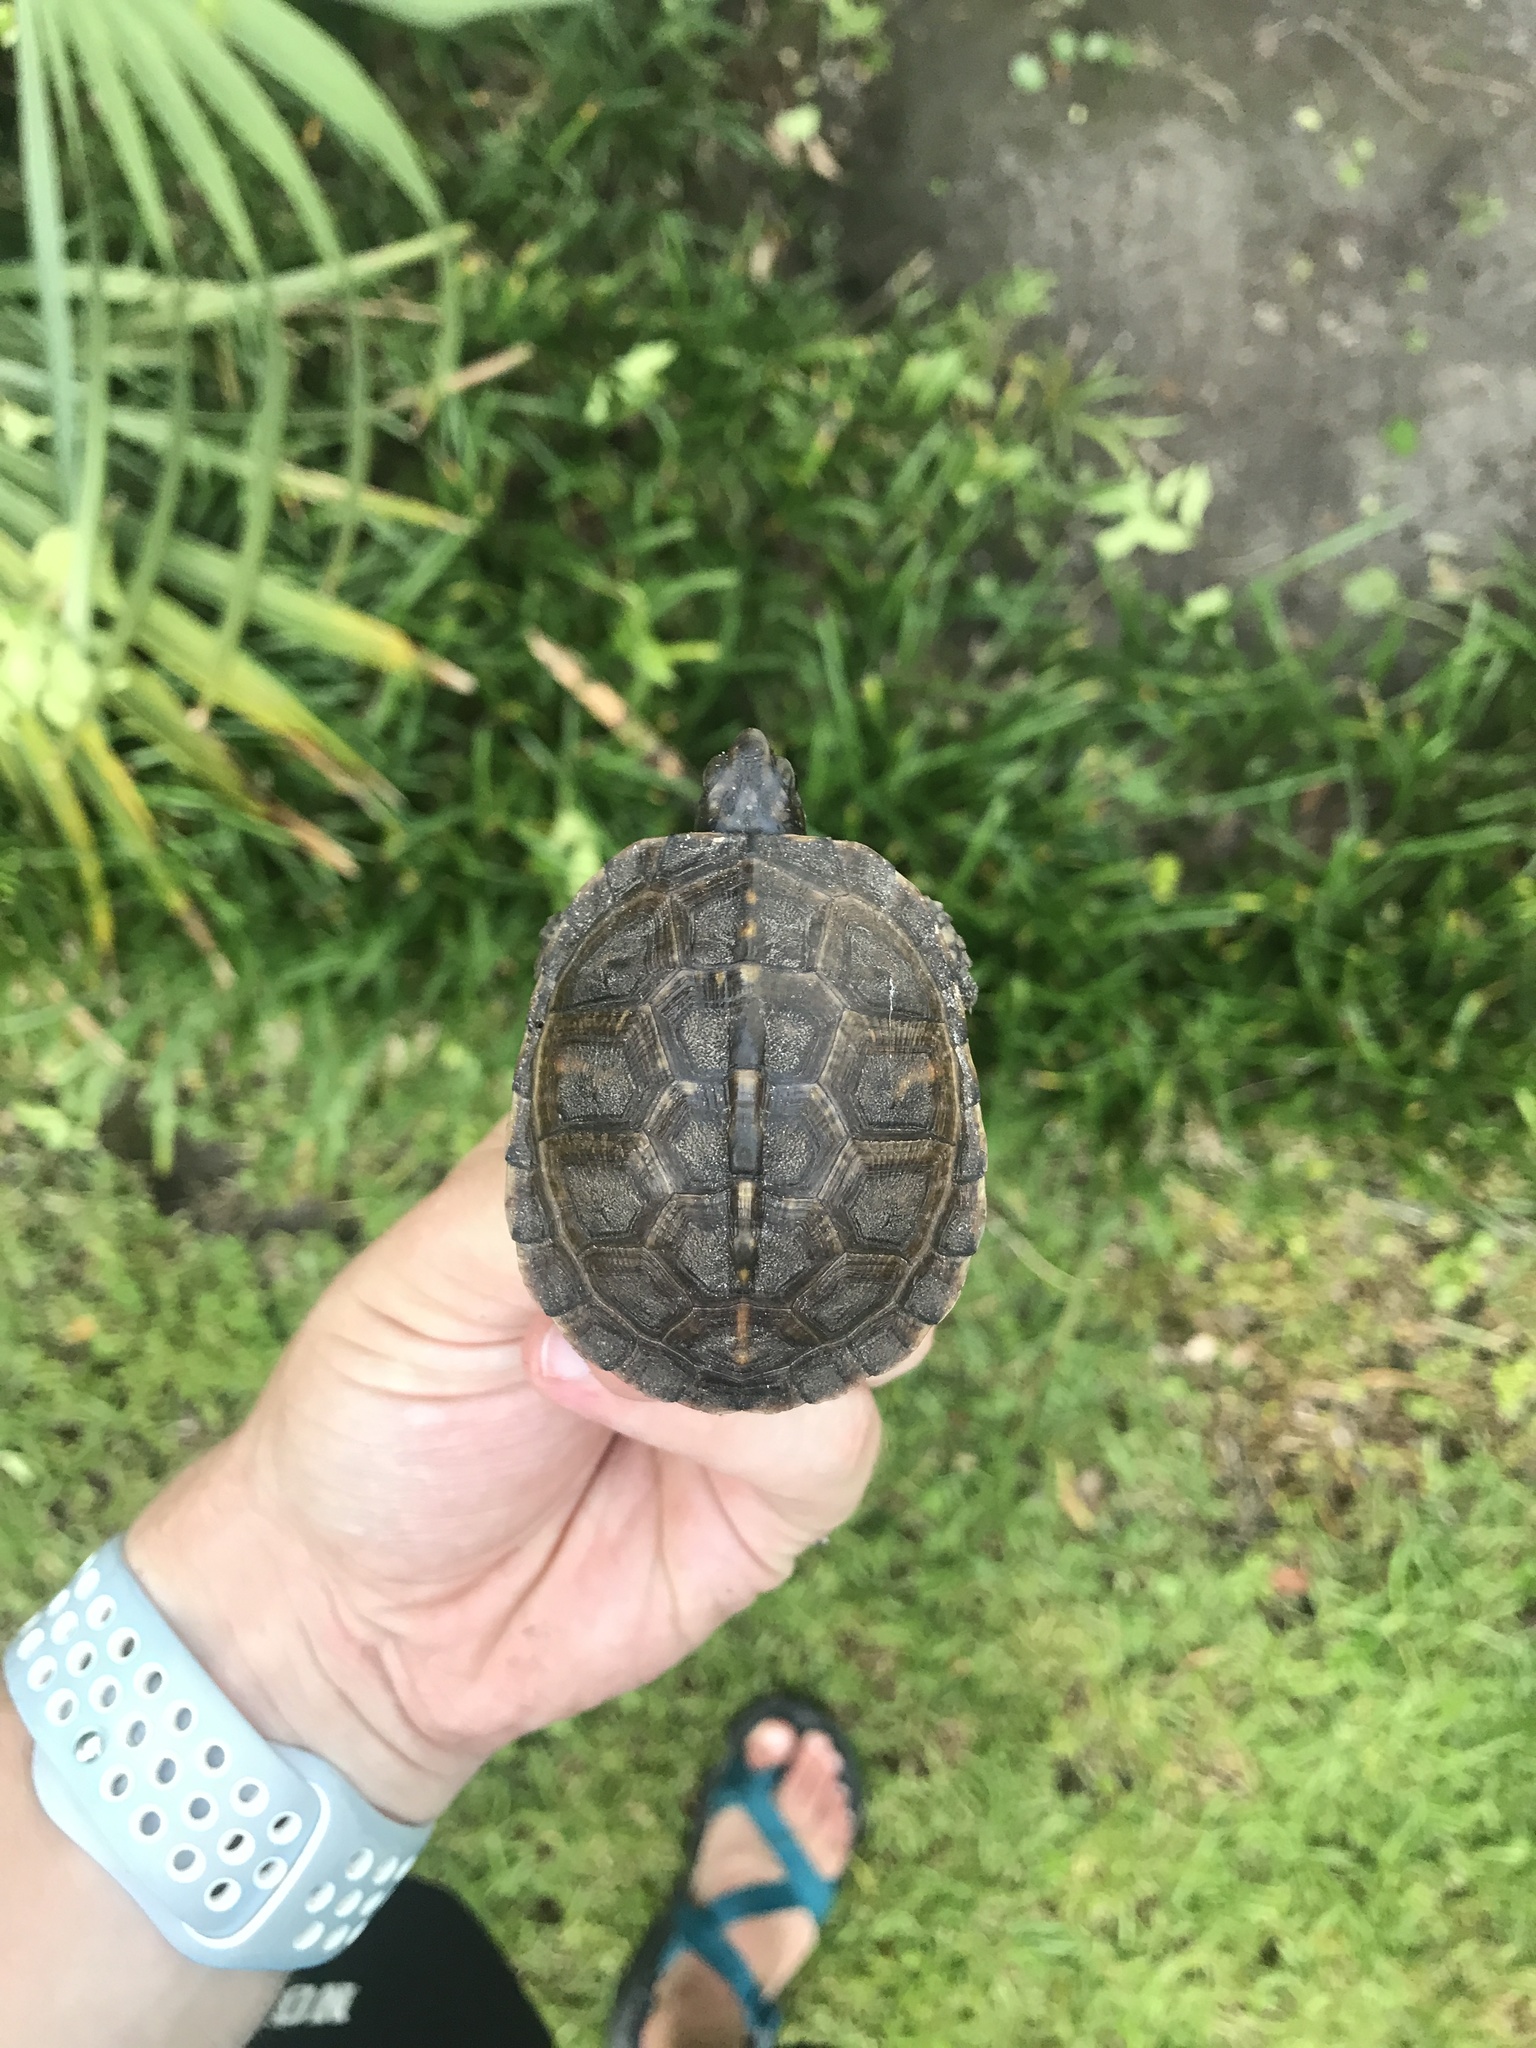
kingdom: Animalia
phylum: Chordata
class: Testudines
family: Emydidae
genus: Terrapene
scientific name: Terrapene carolina
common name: Common box turtle
